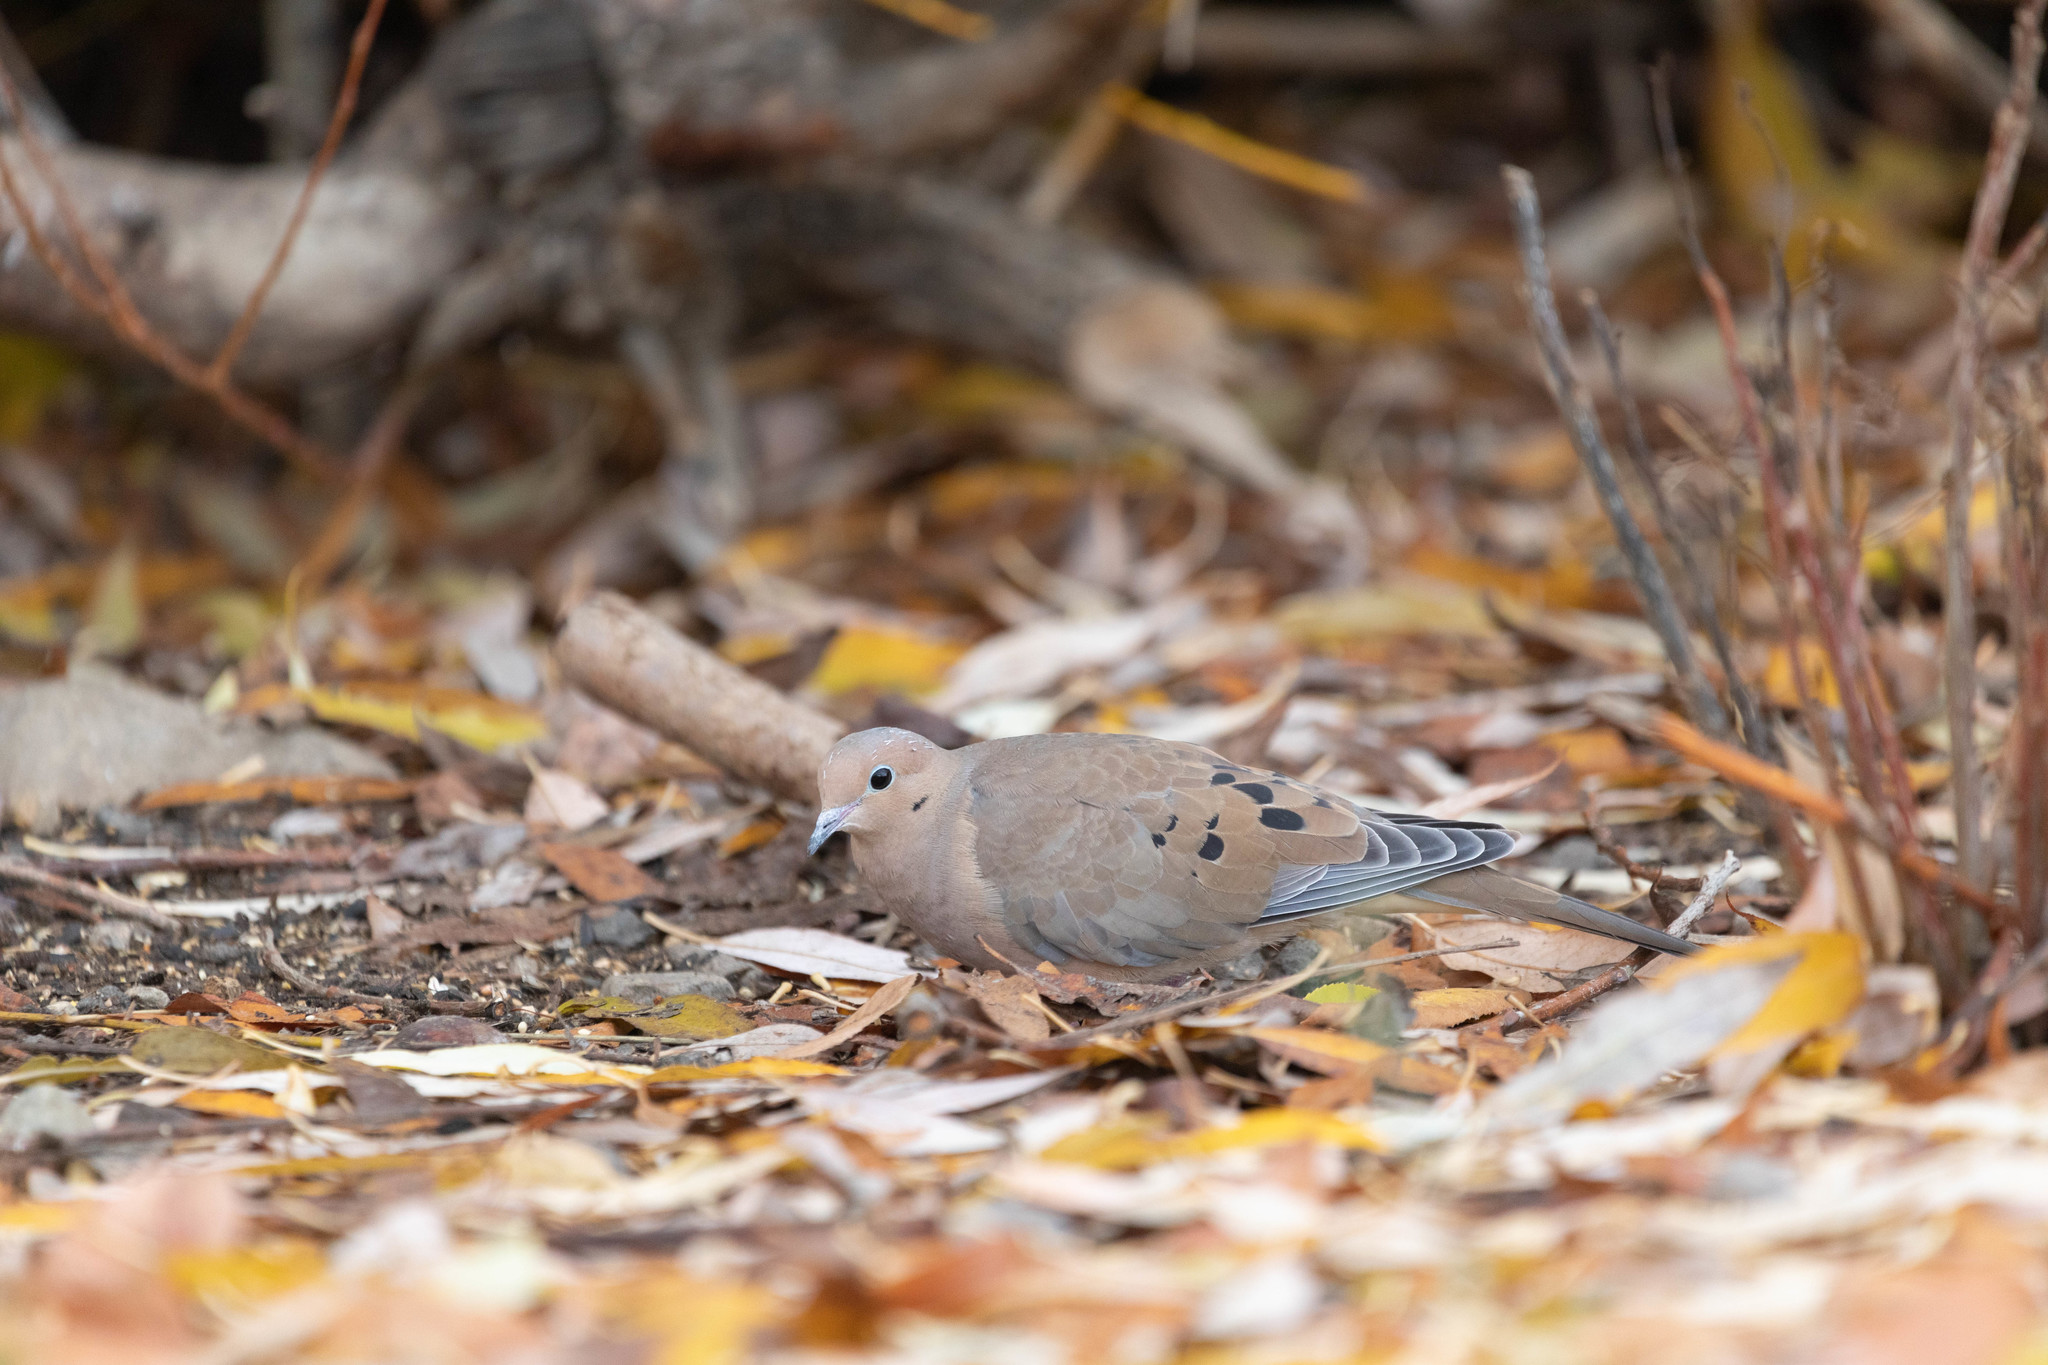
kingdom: Animalia
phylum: Chordata
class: Aves
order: Columbiformes
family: Columbidae
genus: Zenaida
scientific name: Zenaida macroura
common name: Mourning dove
